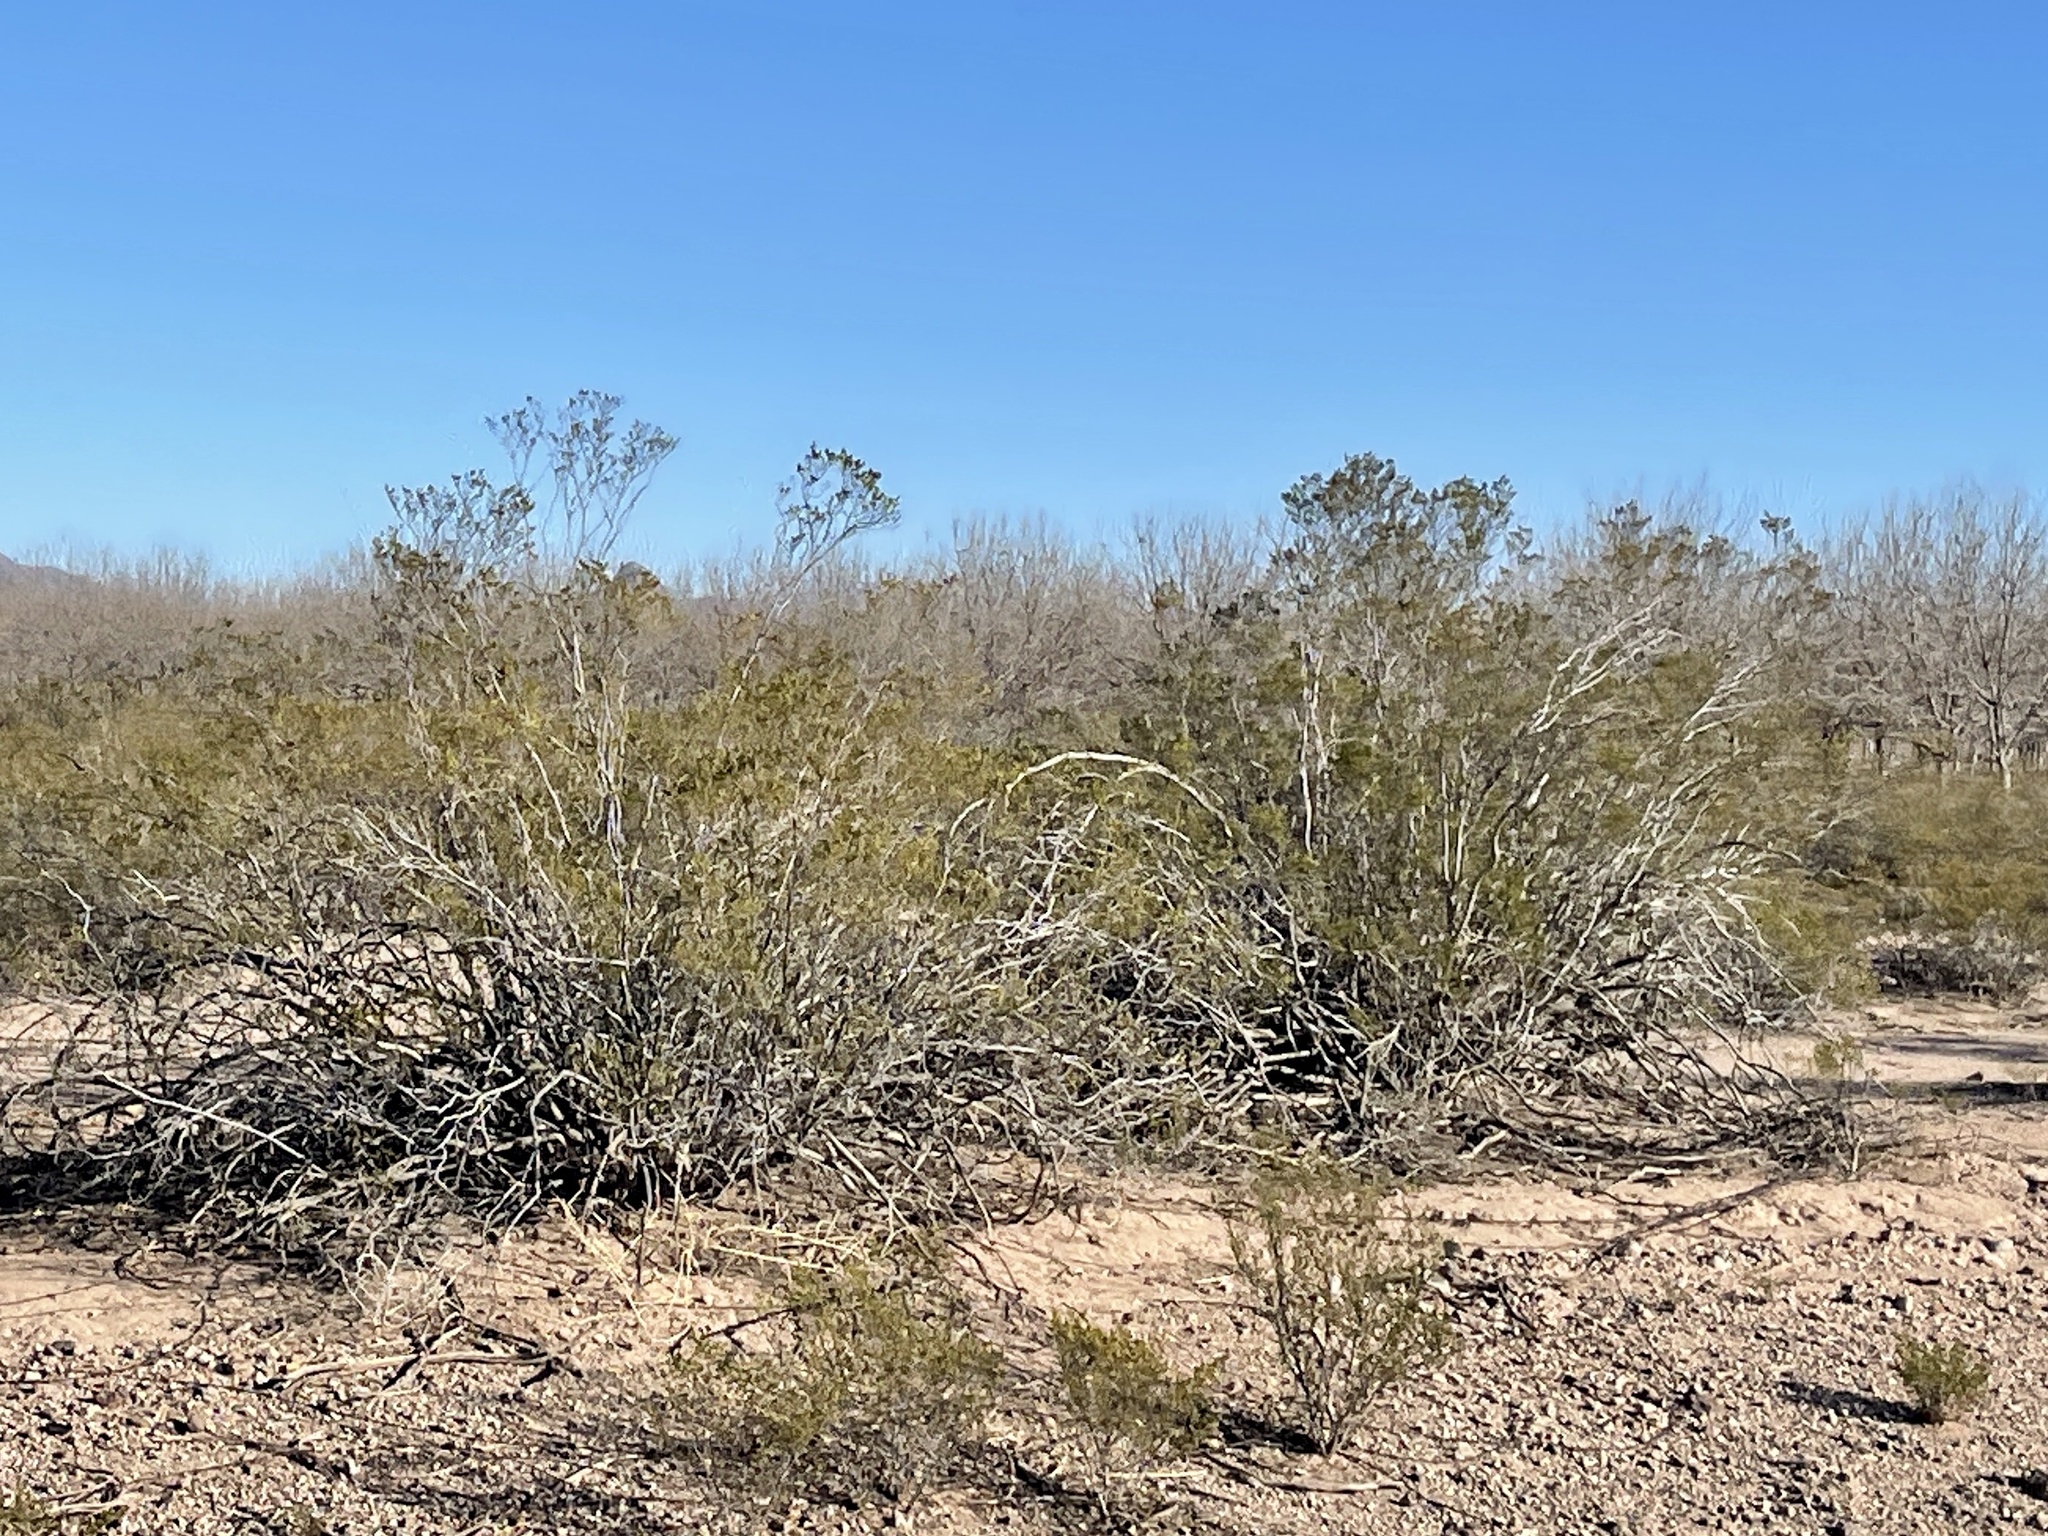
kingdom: Plantae
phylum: Tracheophyta
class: Magnoliopsida
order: Zygophyllales
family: Zygophyllaceae
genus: Larrea
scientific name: Larrea tridentata
